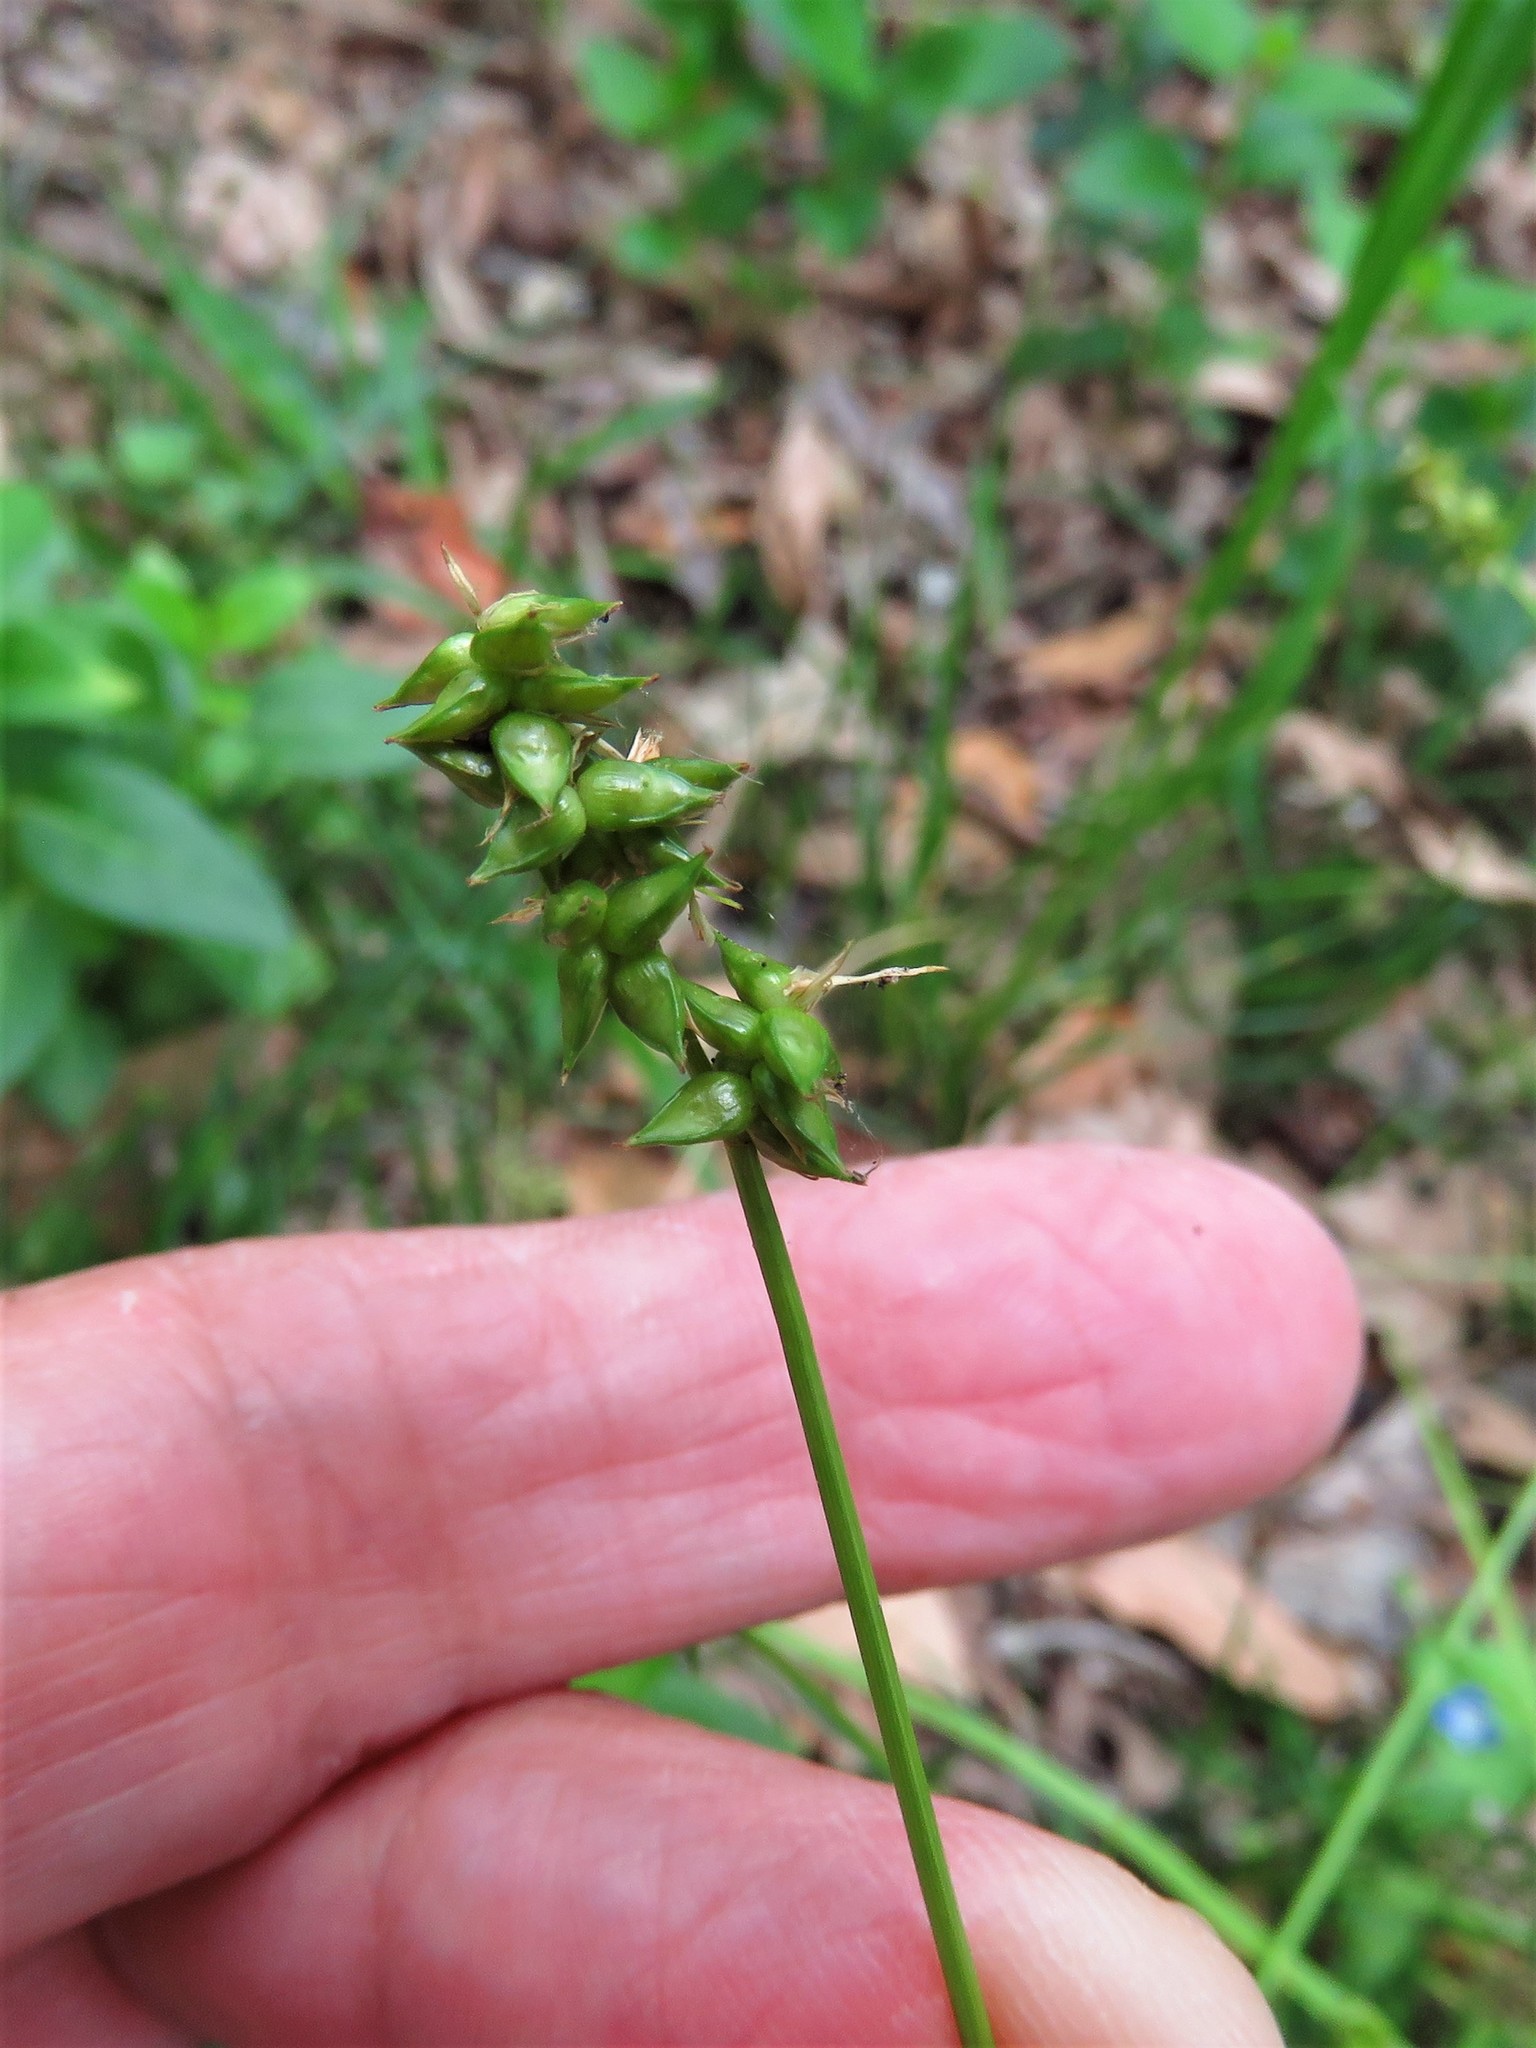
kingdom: Plantae
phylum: Tracheophyta
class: Liliopsida
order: Poales
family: Cyperaceae
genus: Carex
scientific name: Carex retroflexa
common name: Reflexed sedge
